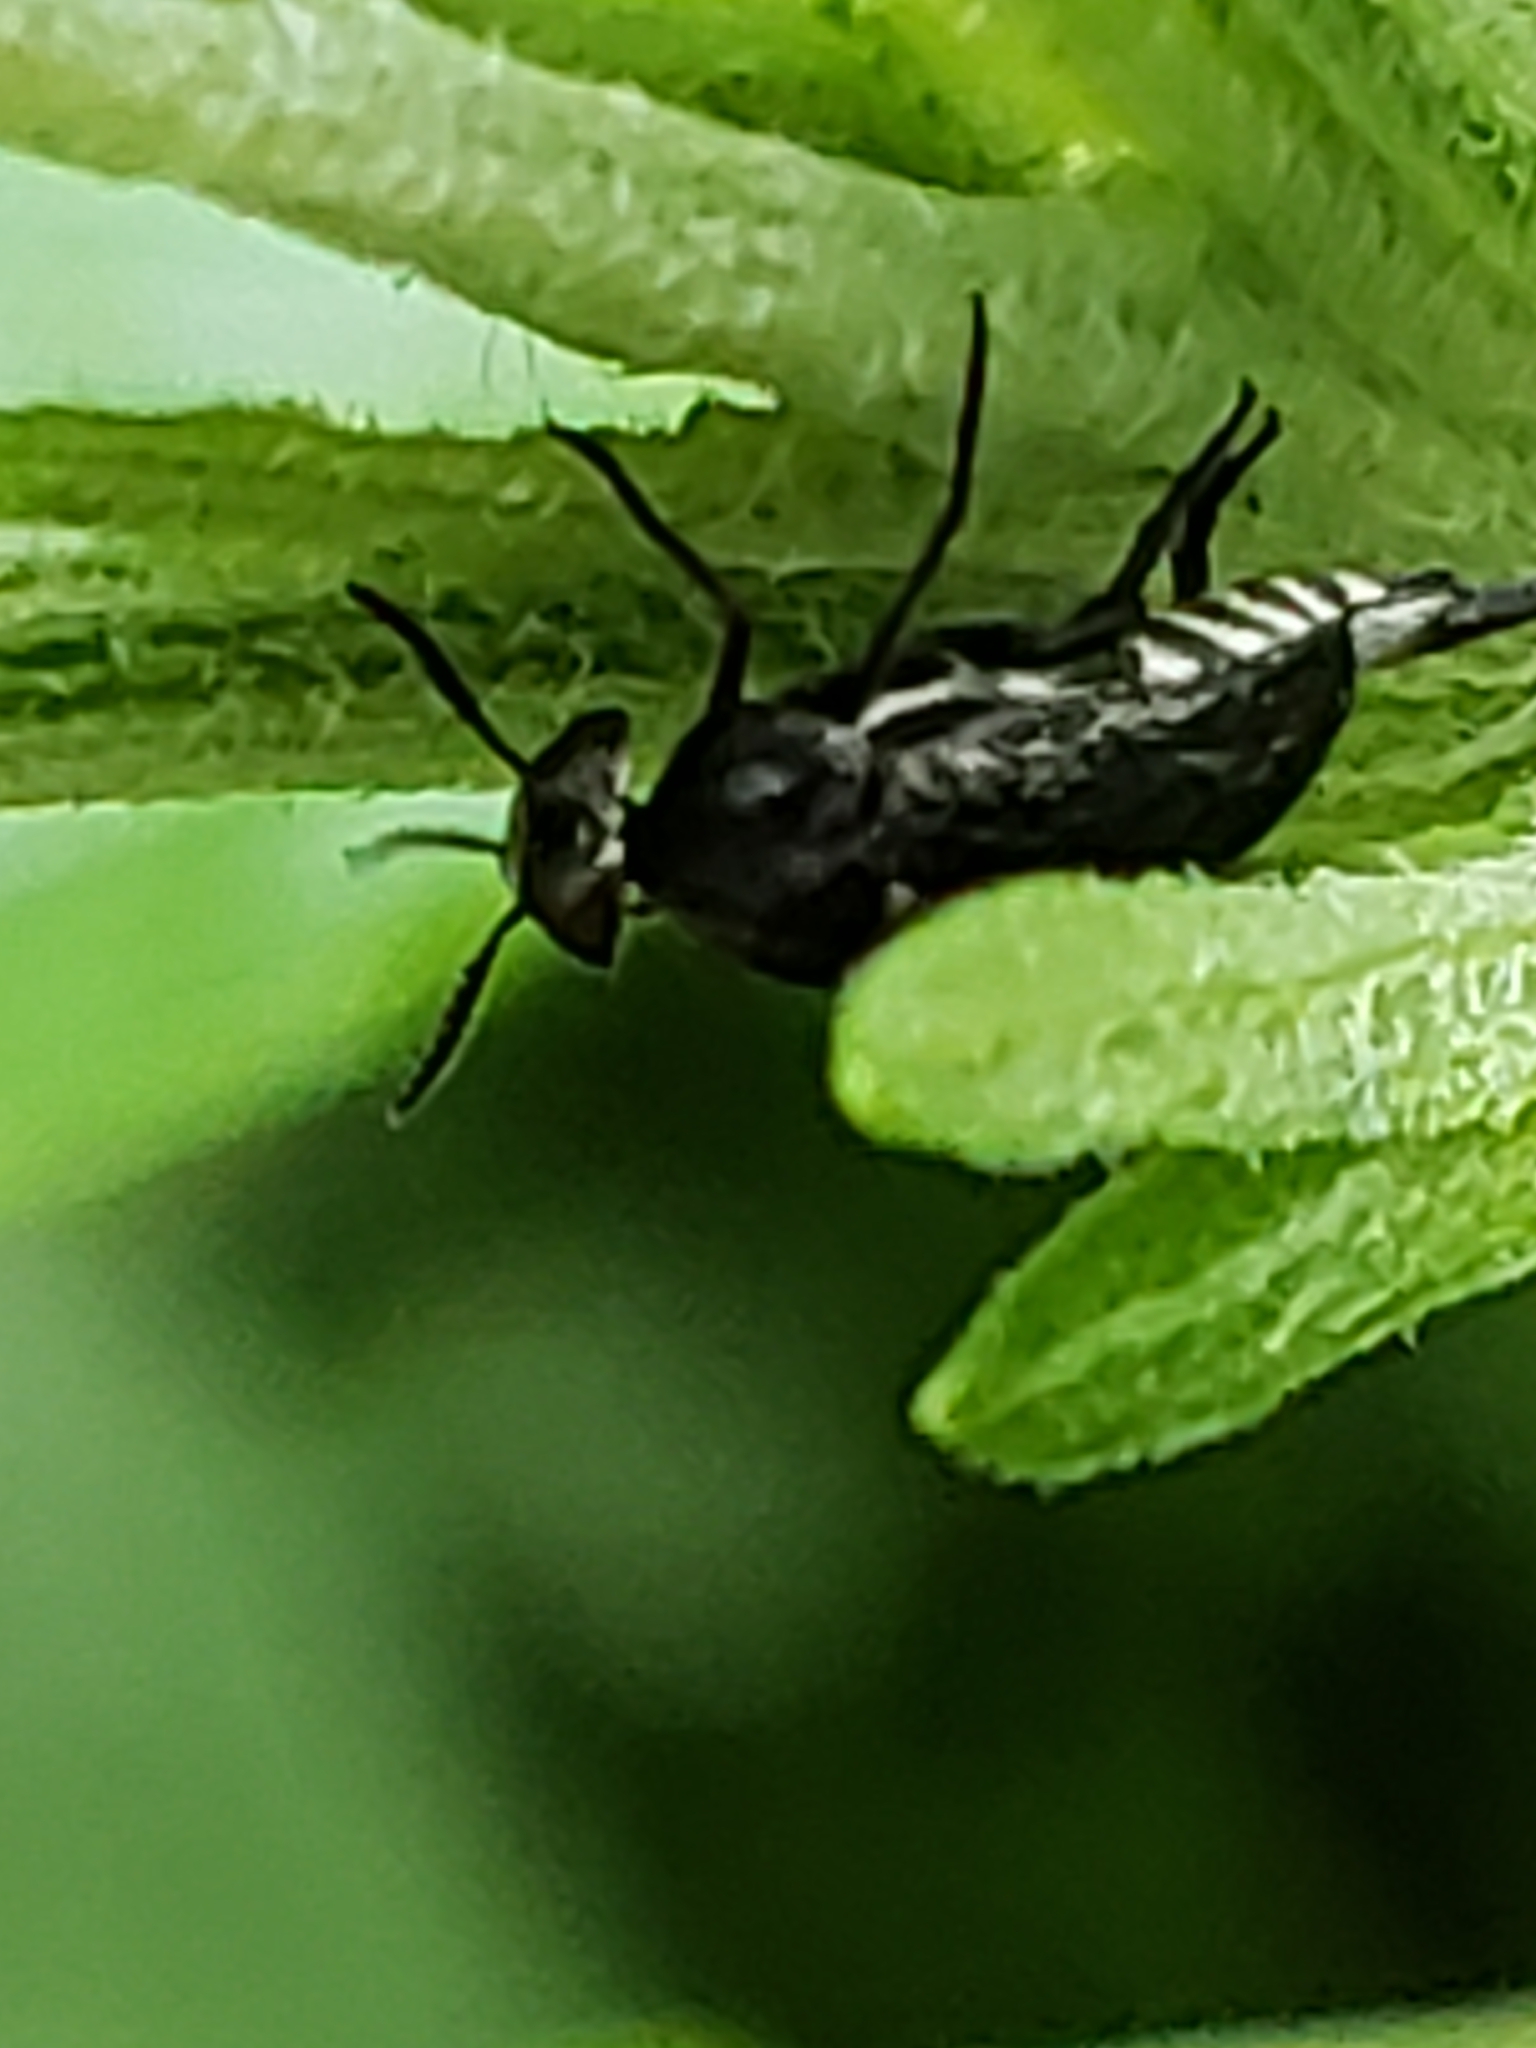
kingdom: Animalia
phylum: Arthropoda
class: Insecta
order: Coleoptera
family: Mordellidae
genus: Mordella
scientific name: Mordella marginata
